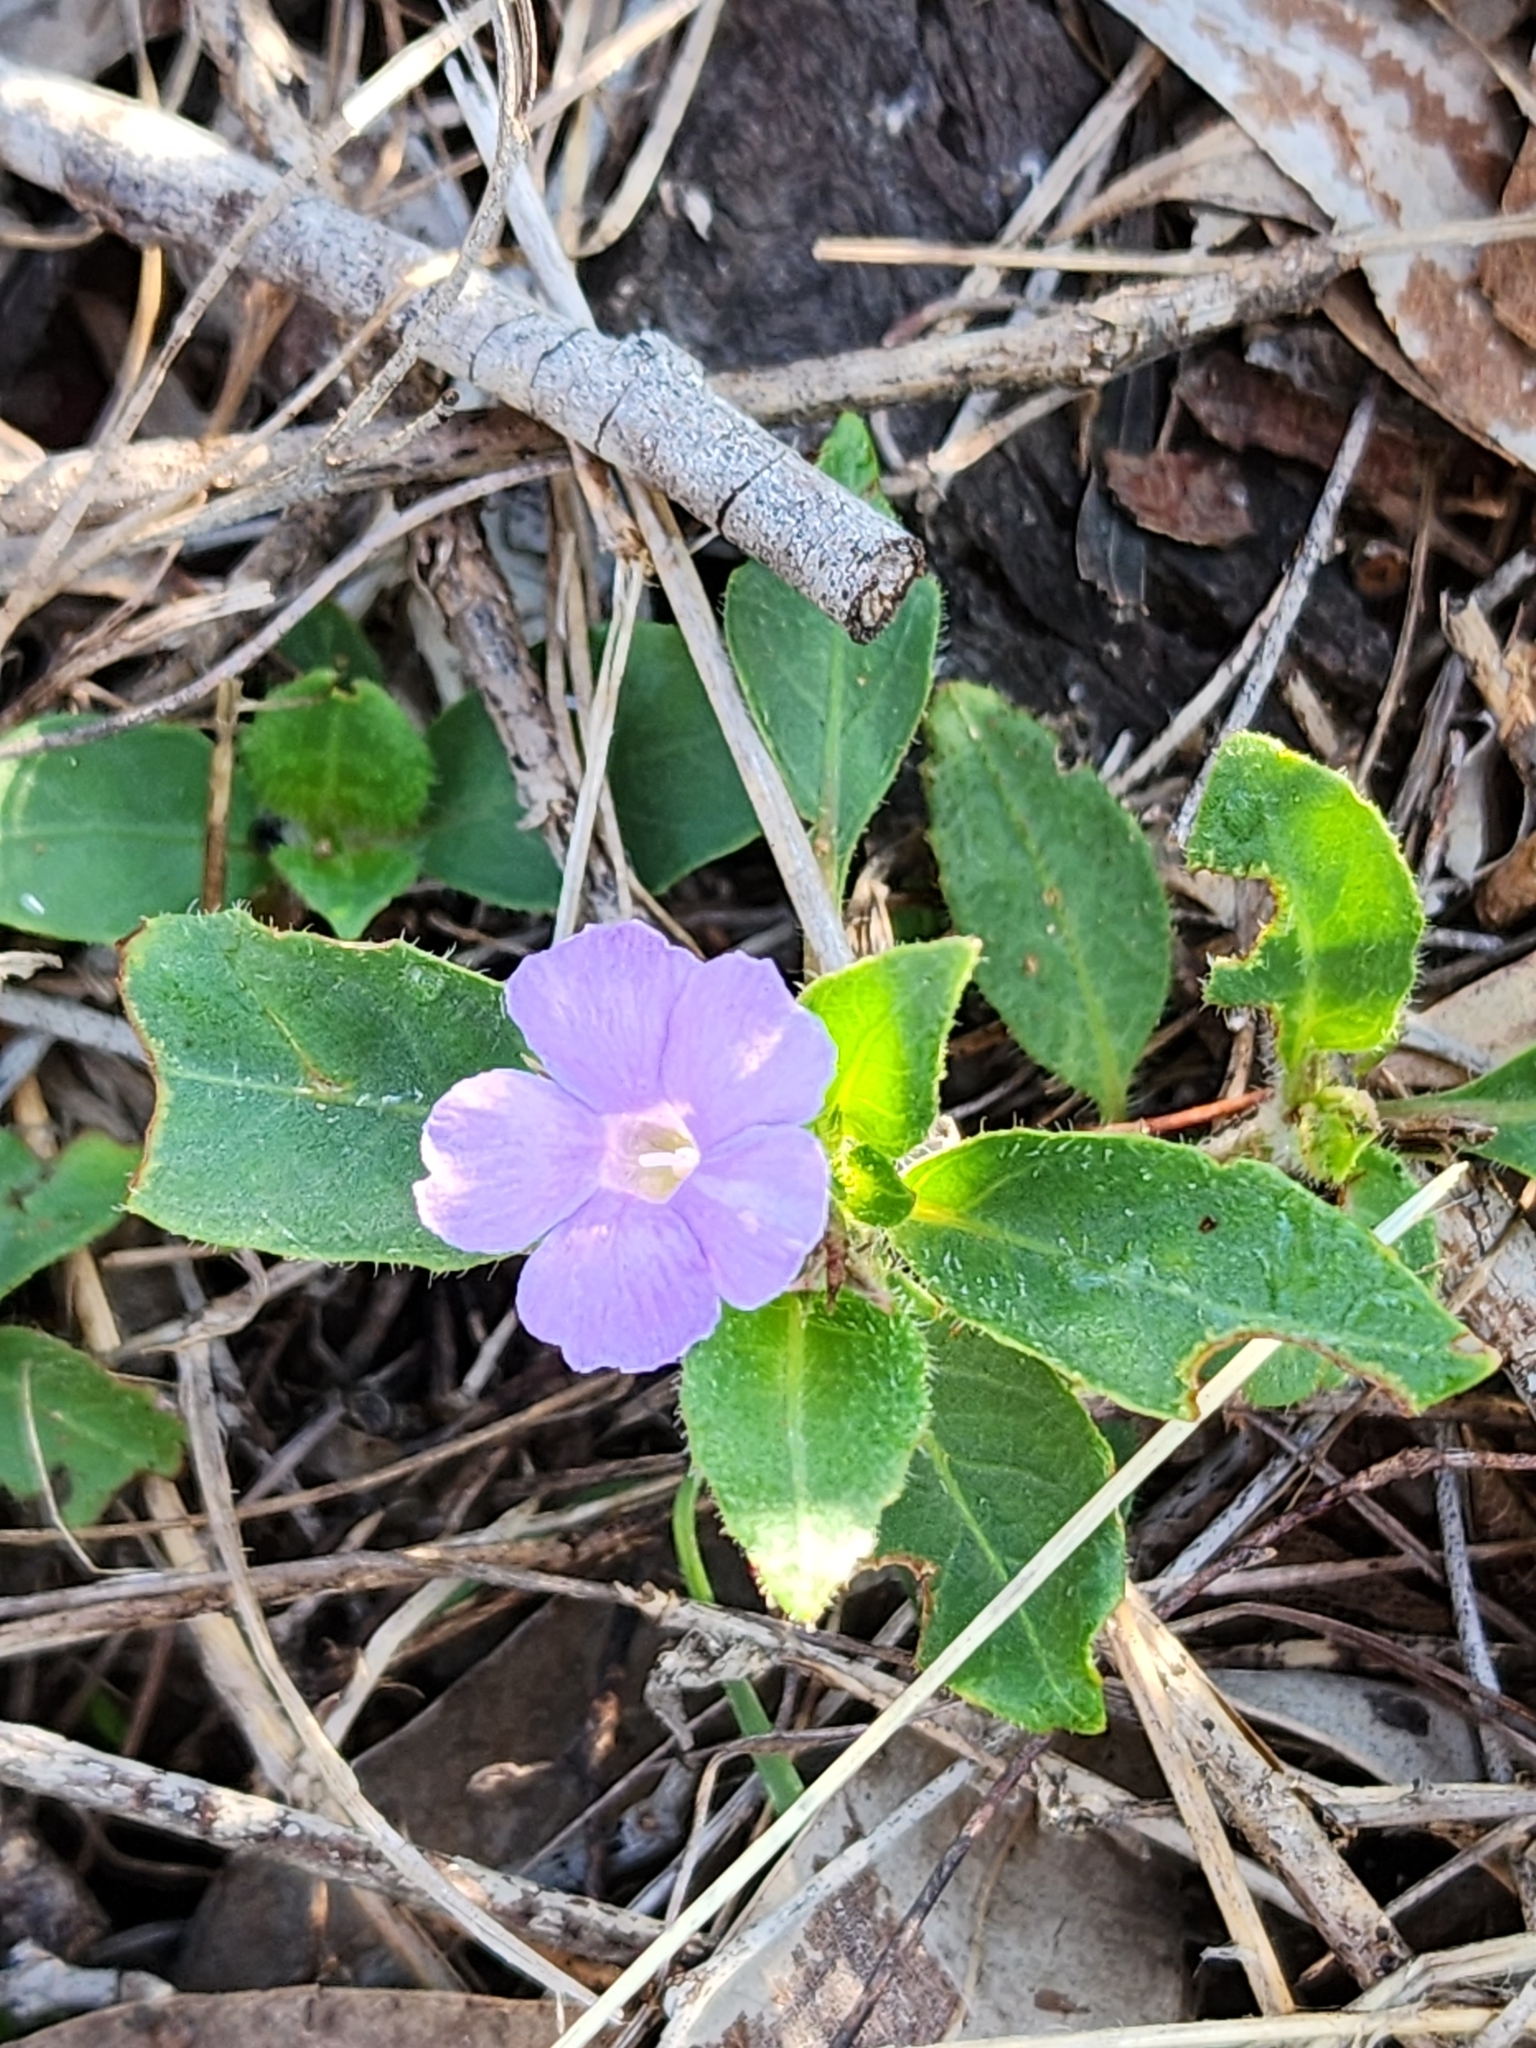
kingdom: Plantae
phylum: Tracheophyta
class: Magnoliopsida
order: Lamiales
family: Acanthaceae
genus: Brunoniella
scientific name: Brunoniella australis
